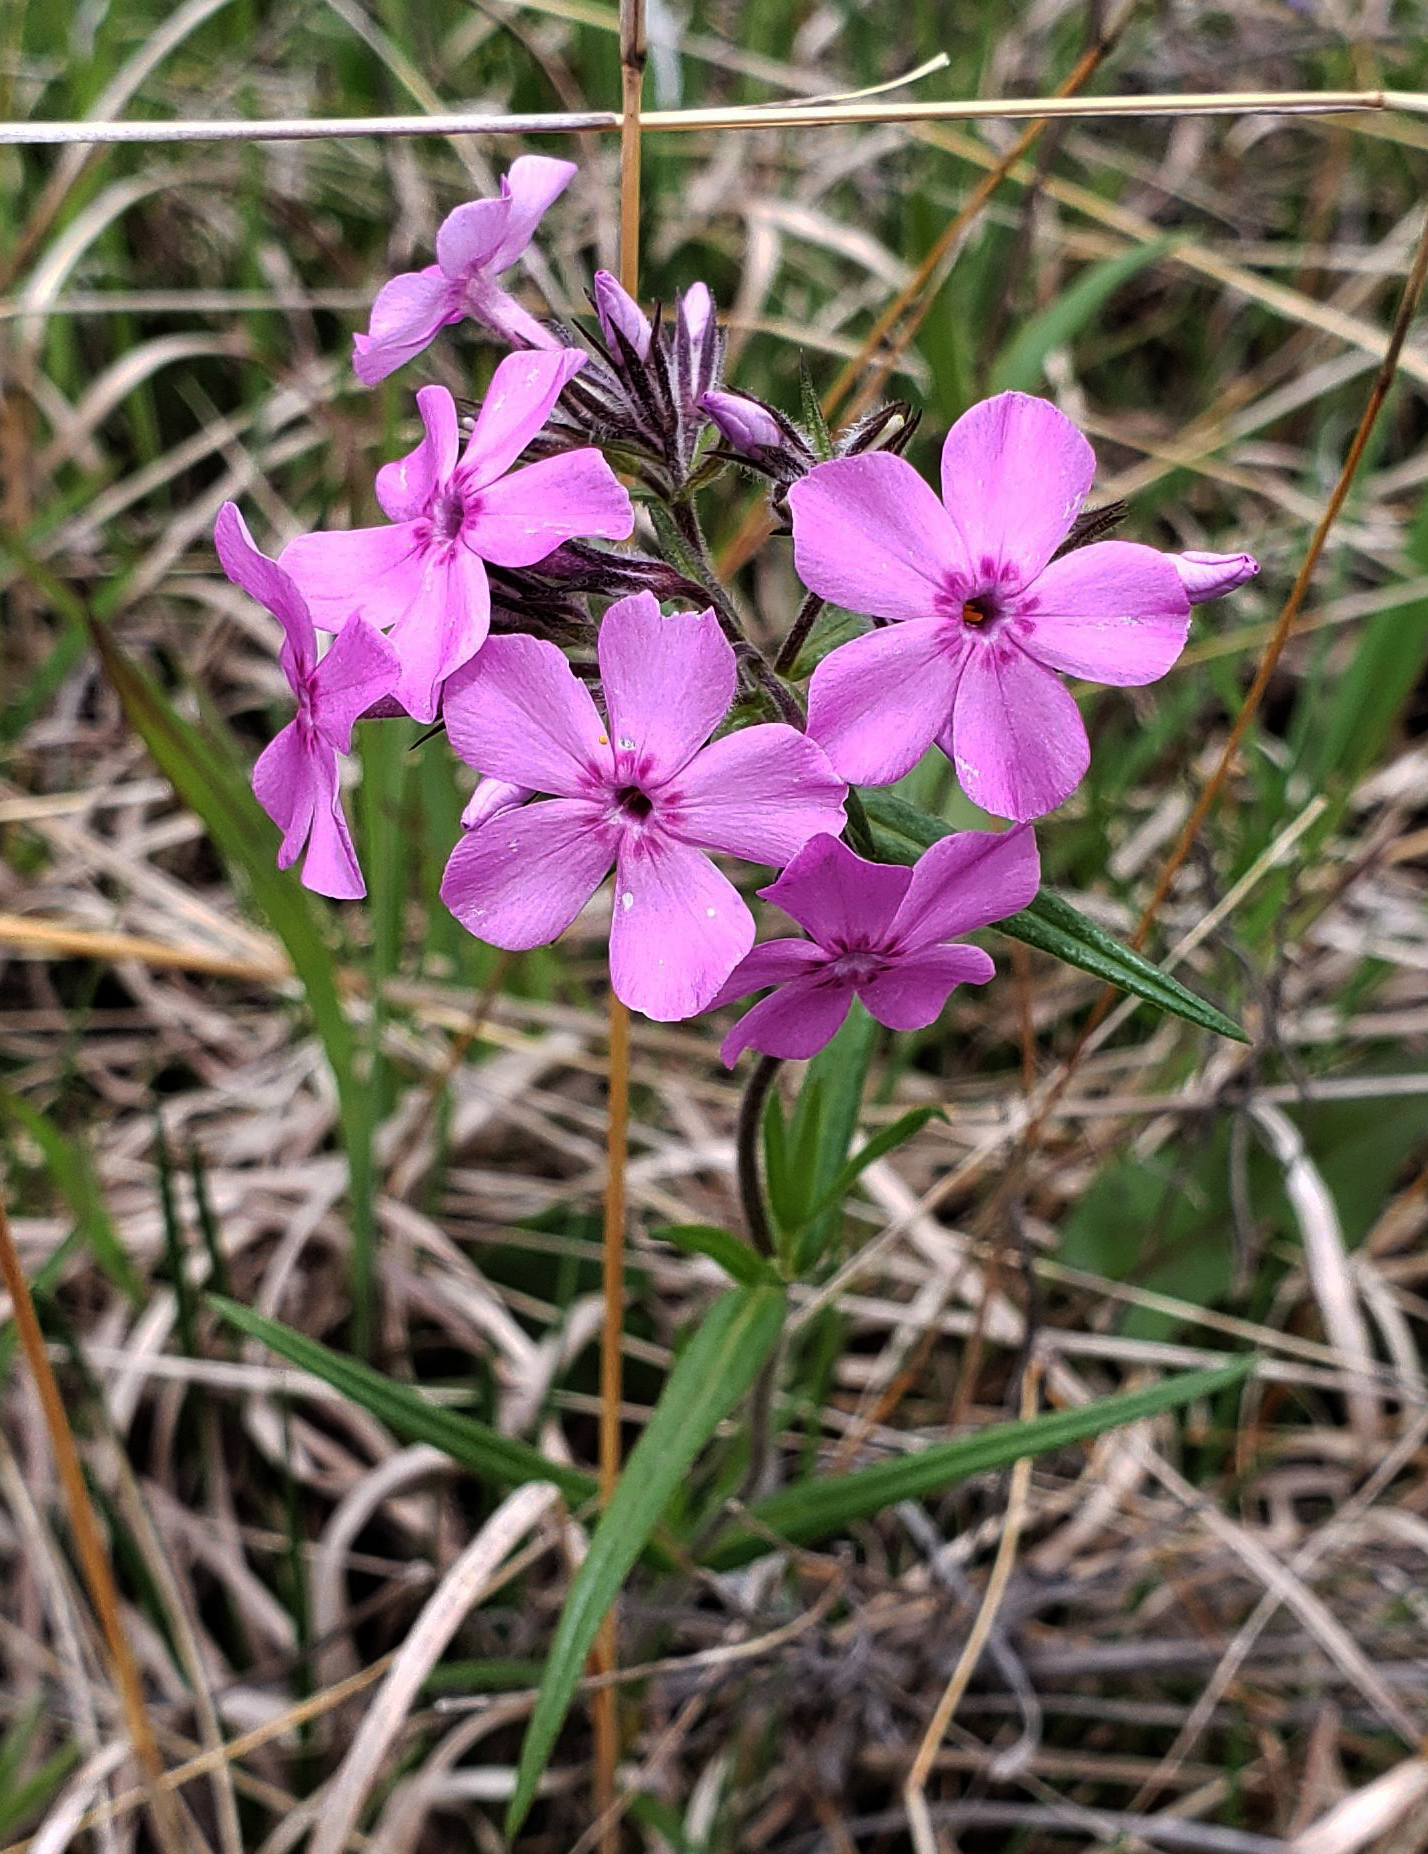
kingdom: Plantae
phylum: Tracheophyta
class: Magnoliopsida
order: Ericales
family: Polemoniaceae
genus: Phlox
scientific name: Phlox pilosa
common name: Prairie phlox
